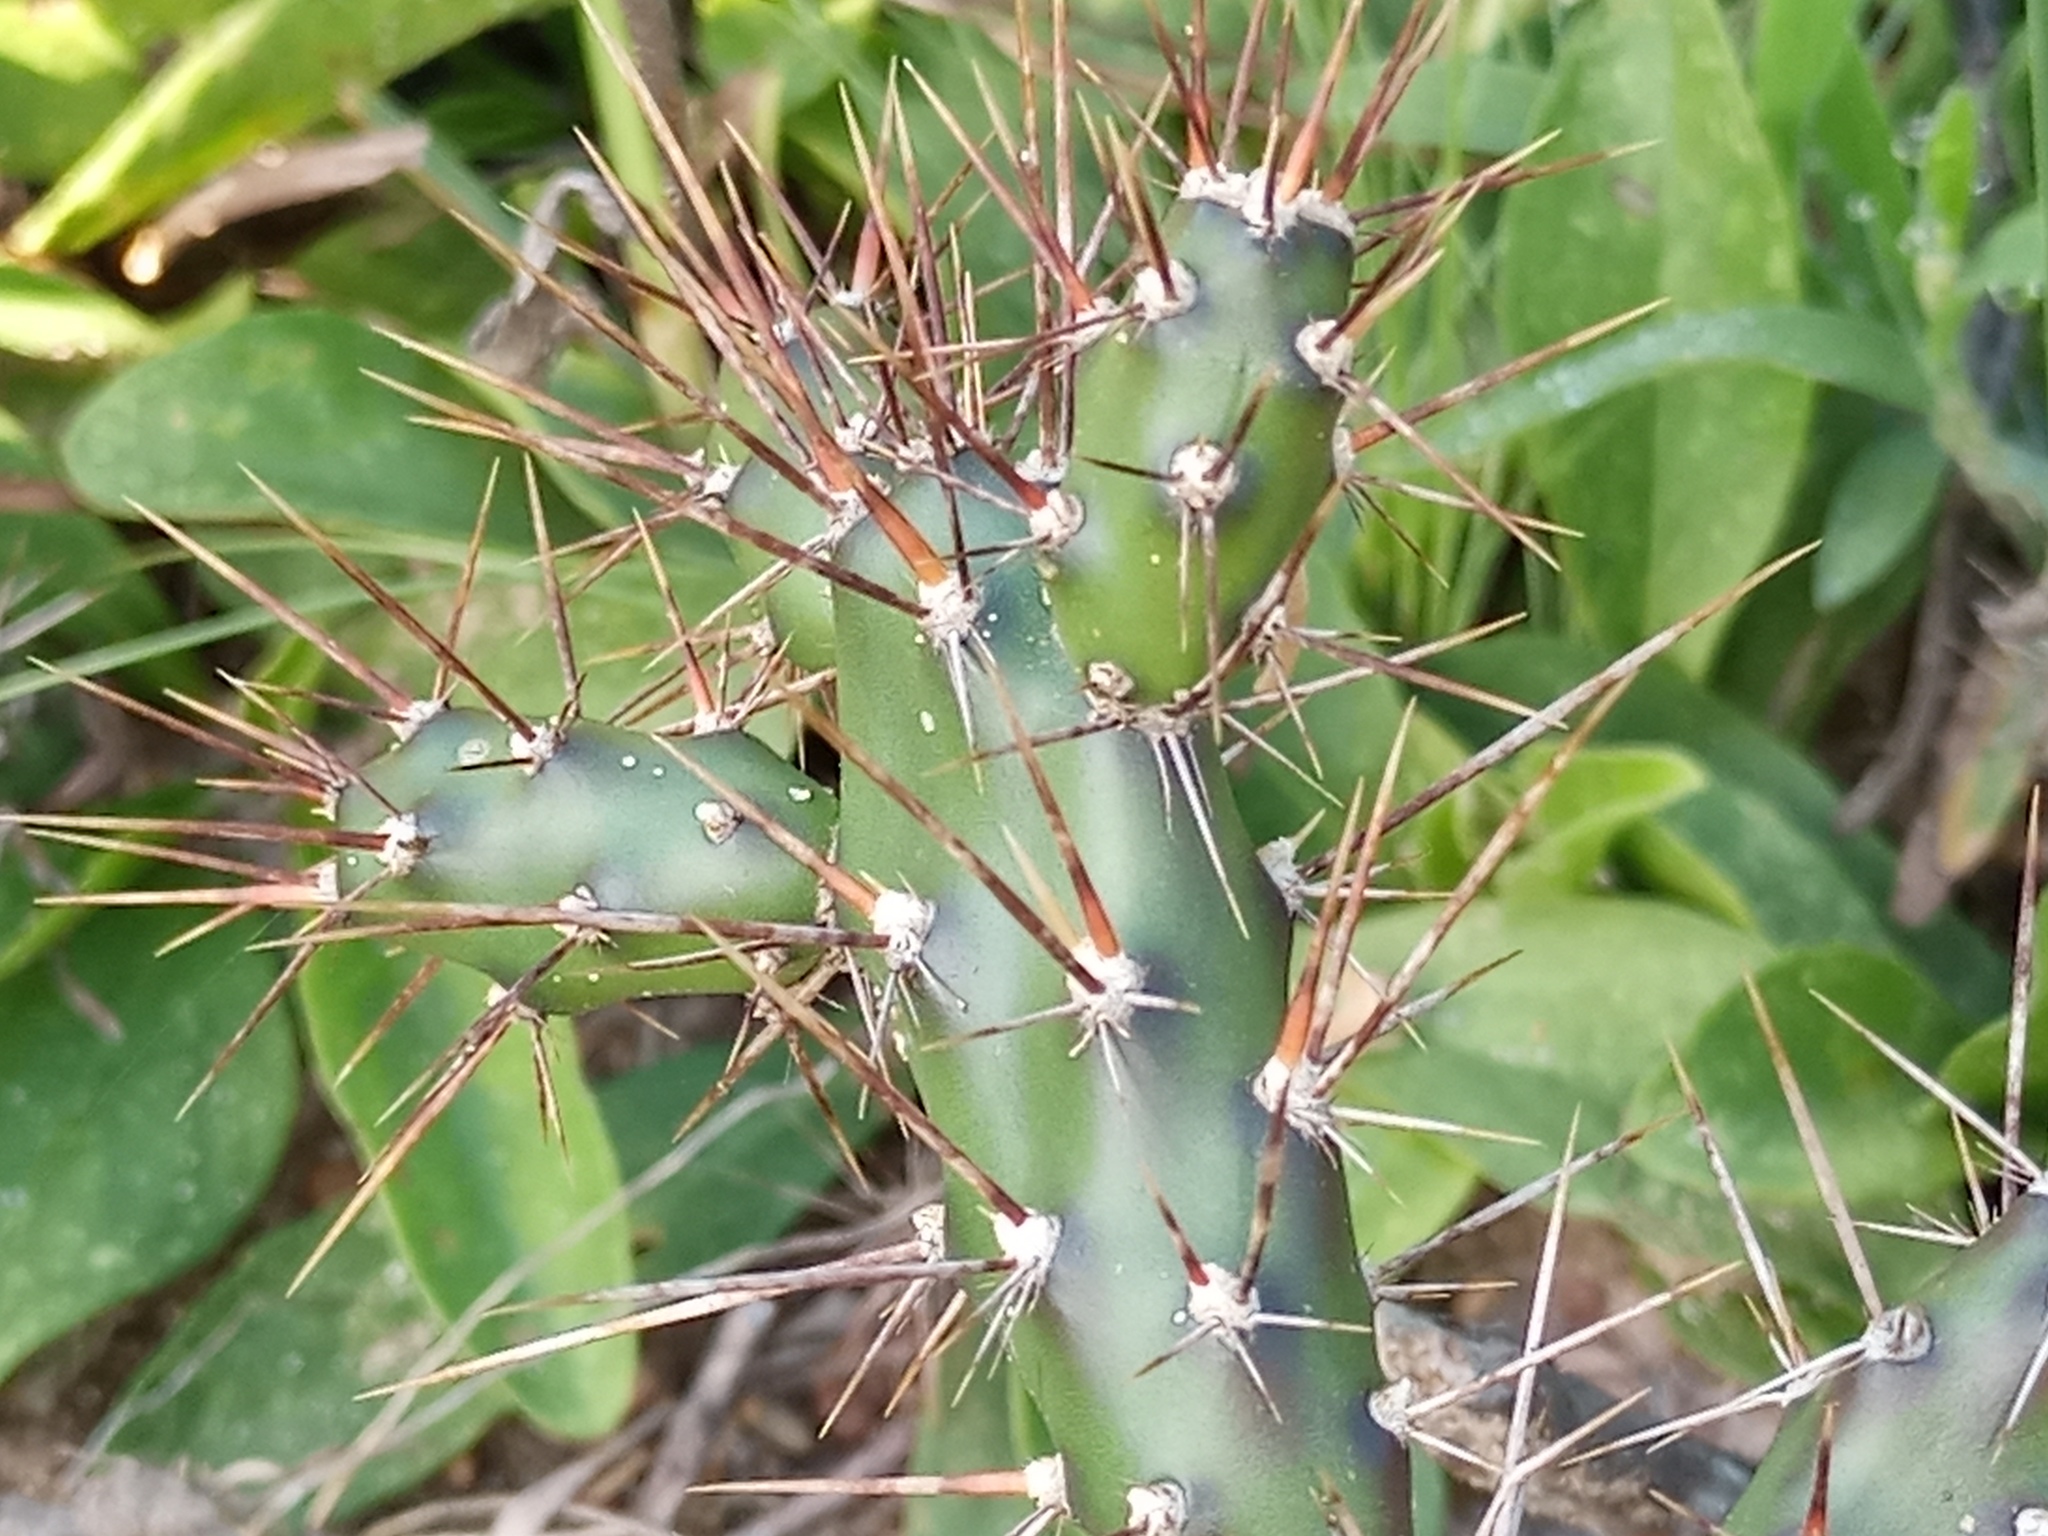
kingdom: Plantae
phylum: Tracheophyta
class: Magnoliopsida
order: Caryophyllales
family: Cactaceae
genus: Opuntia
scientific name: Opuntia anacantha
